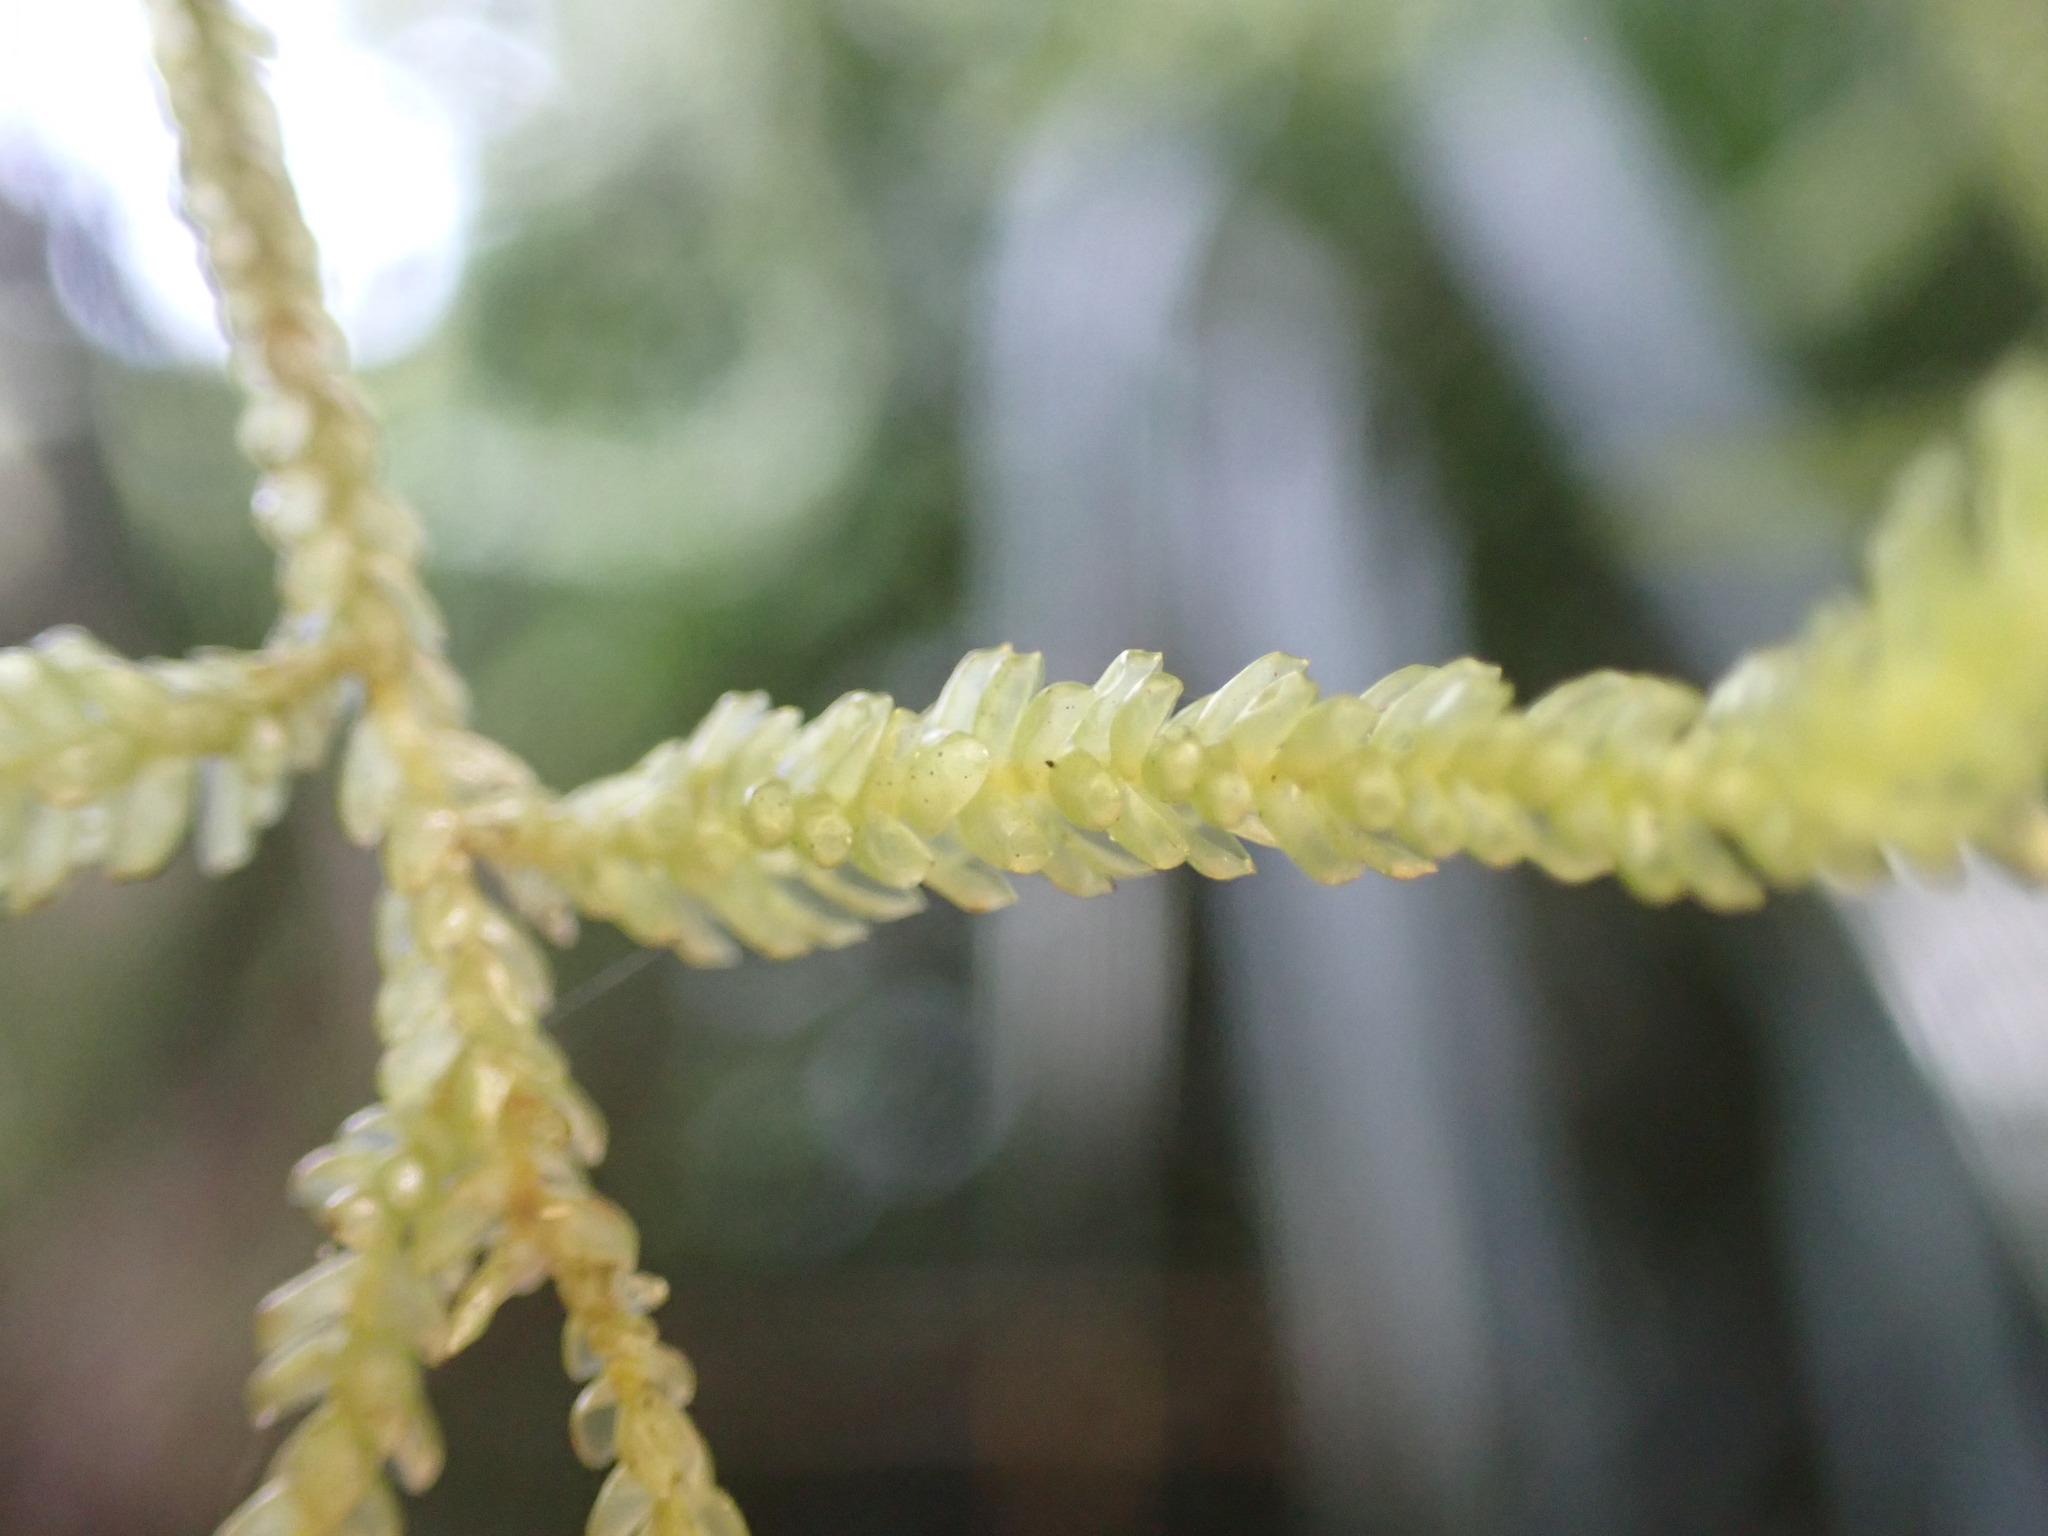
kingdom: Plantae
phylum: Bryophyta
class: Bryopsida
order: Hypnales
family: Lembophyllaceae
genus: Weymouthia
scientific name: Weymouthia cochlearifolia
